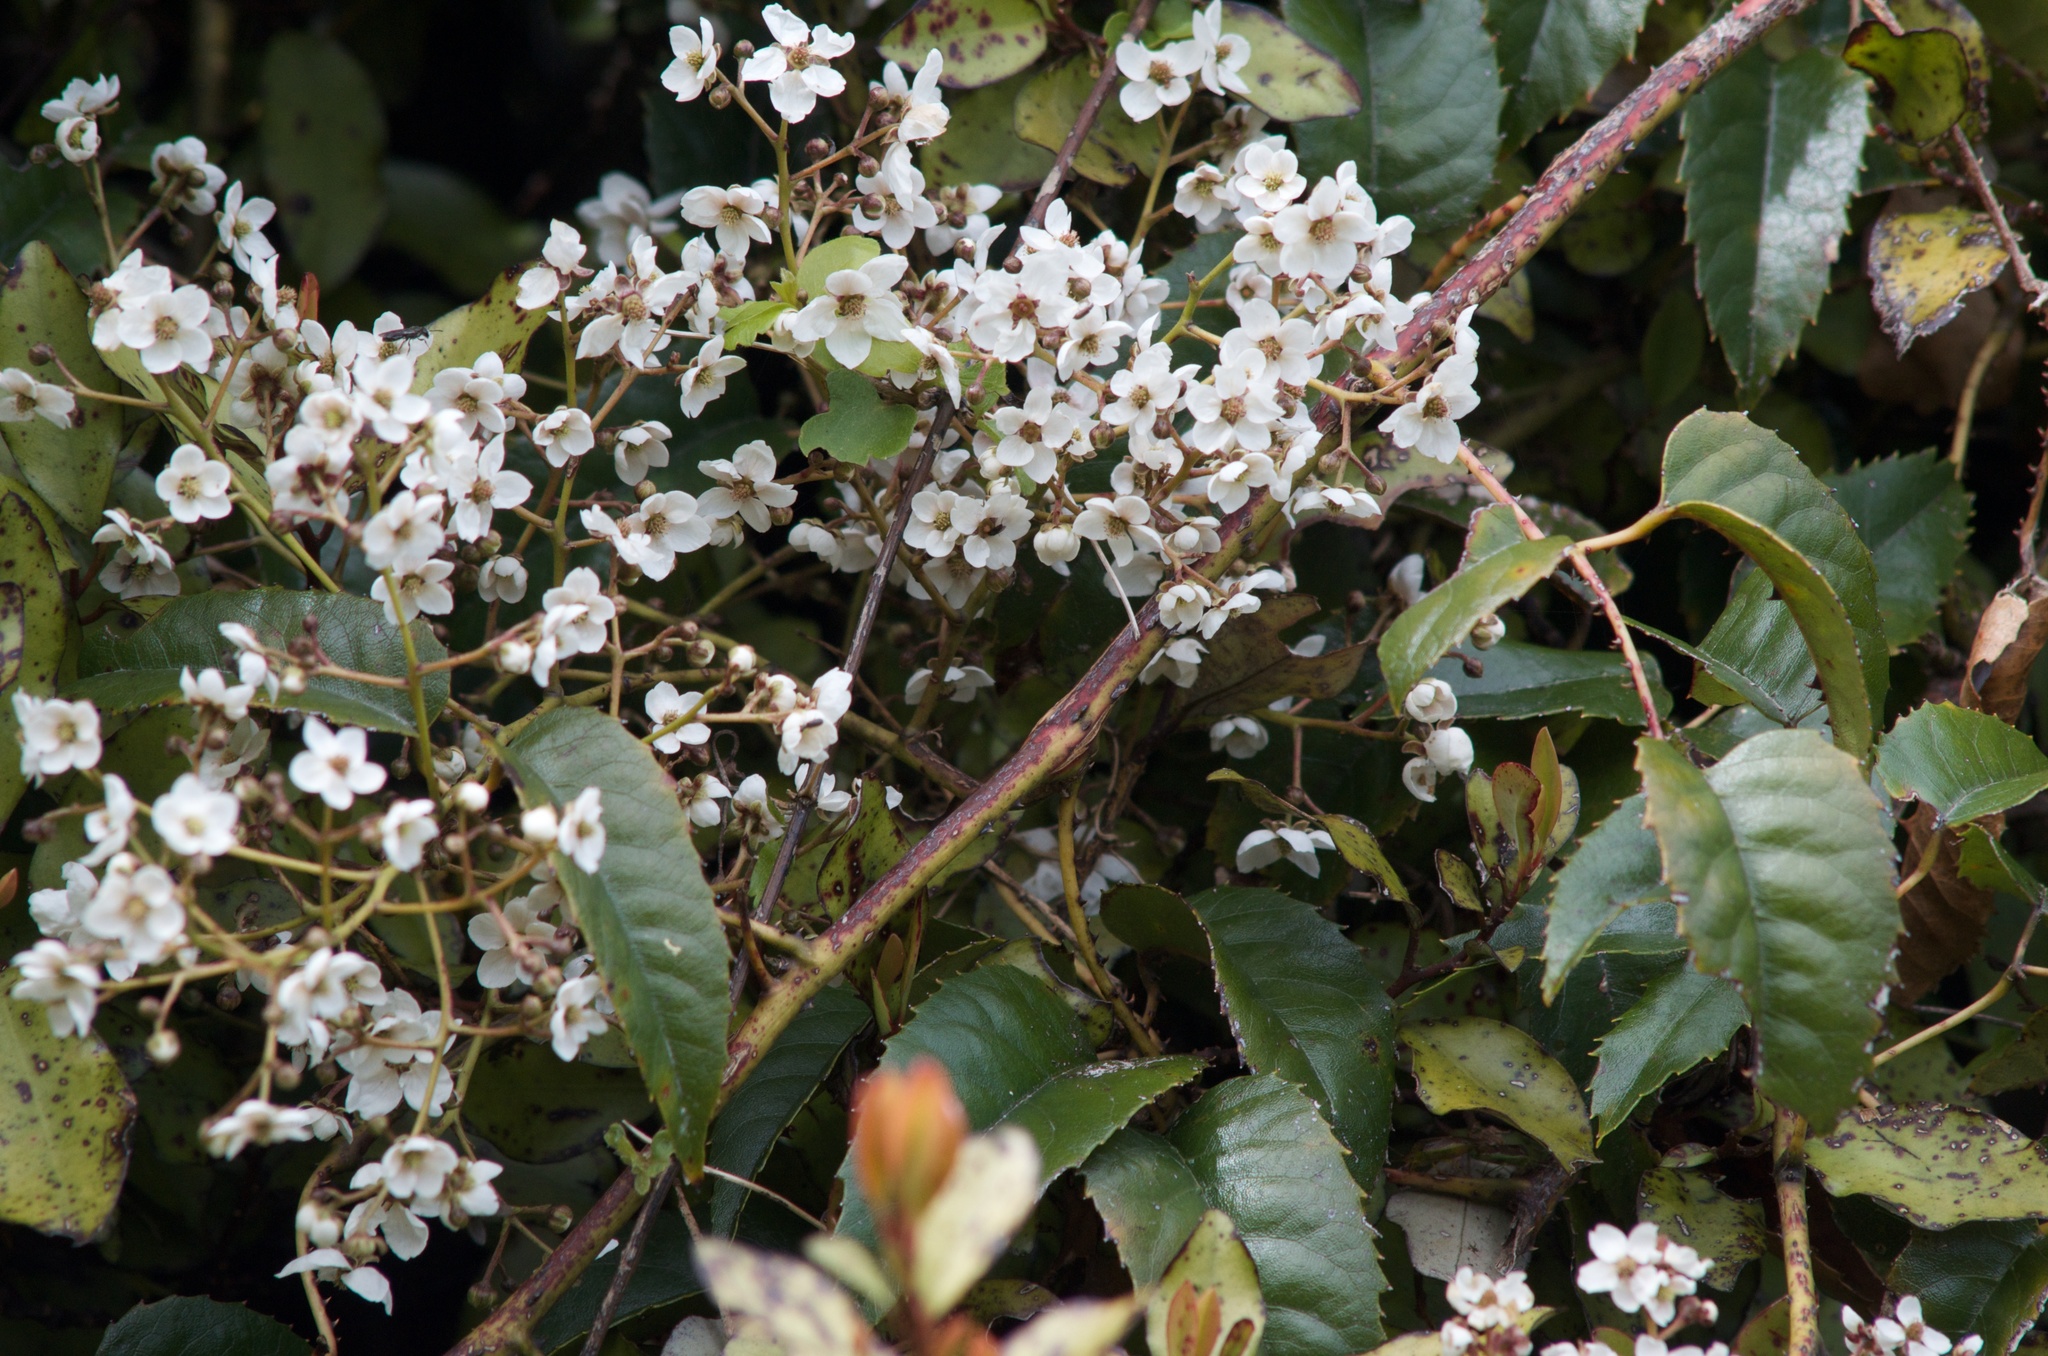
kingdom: Plantae
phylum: Tracheophyta
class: Magnoliopsida
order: Rosales
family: Rosaceae
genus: Rubus
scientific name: Rubus cissoides
